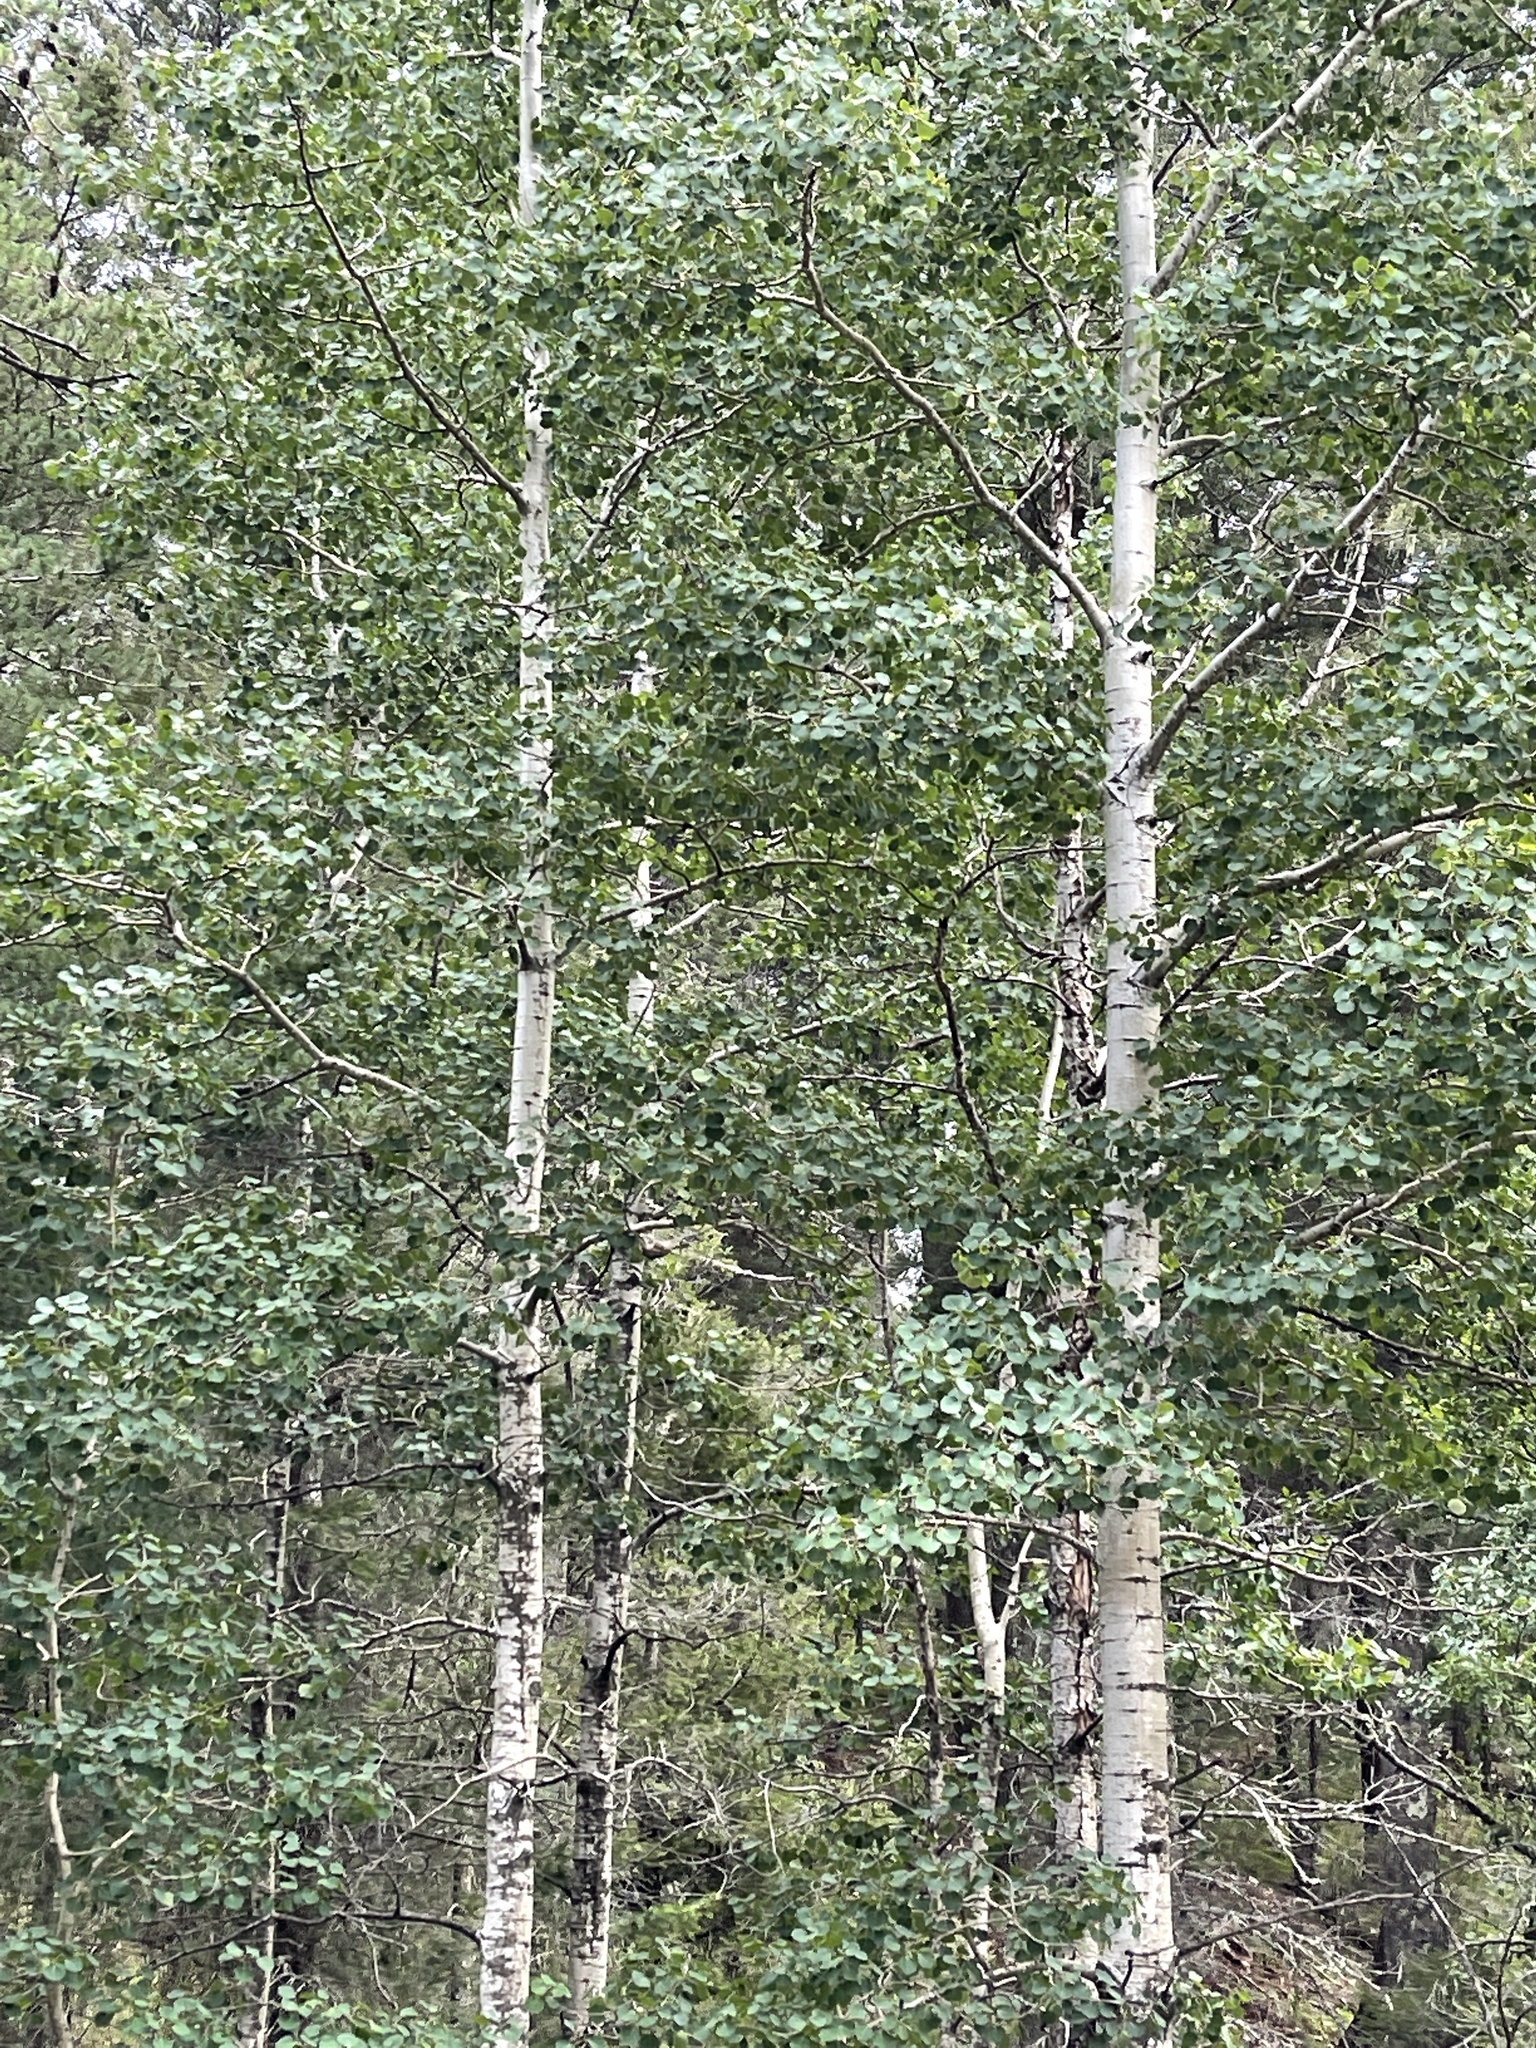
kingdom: Plantae
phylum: Tracheophyta
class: Magnoliopsida
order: Malpighiales
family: Salicaceae
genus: Populus
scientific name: Populus tremuloides
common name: Quaking aspen
